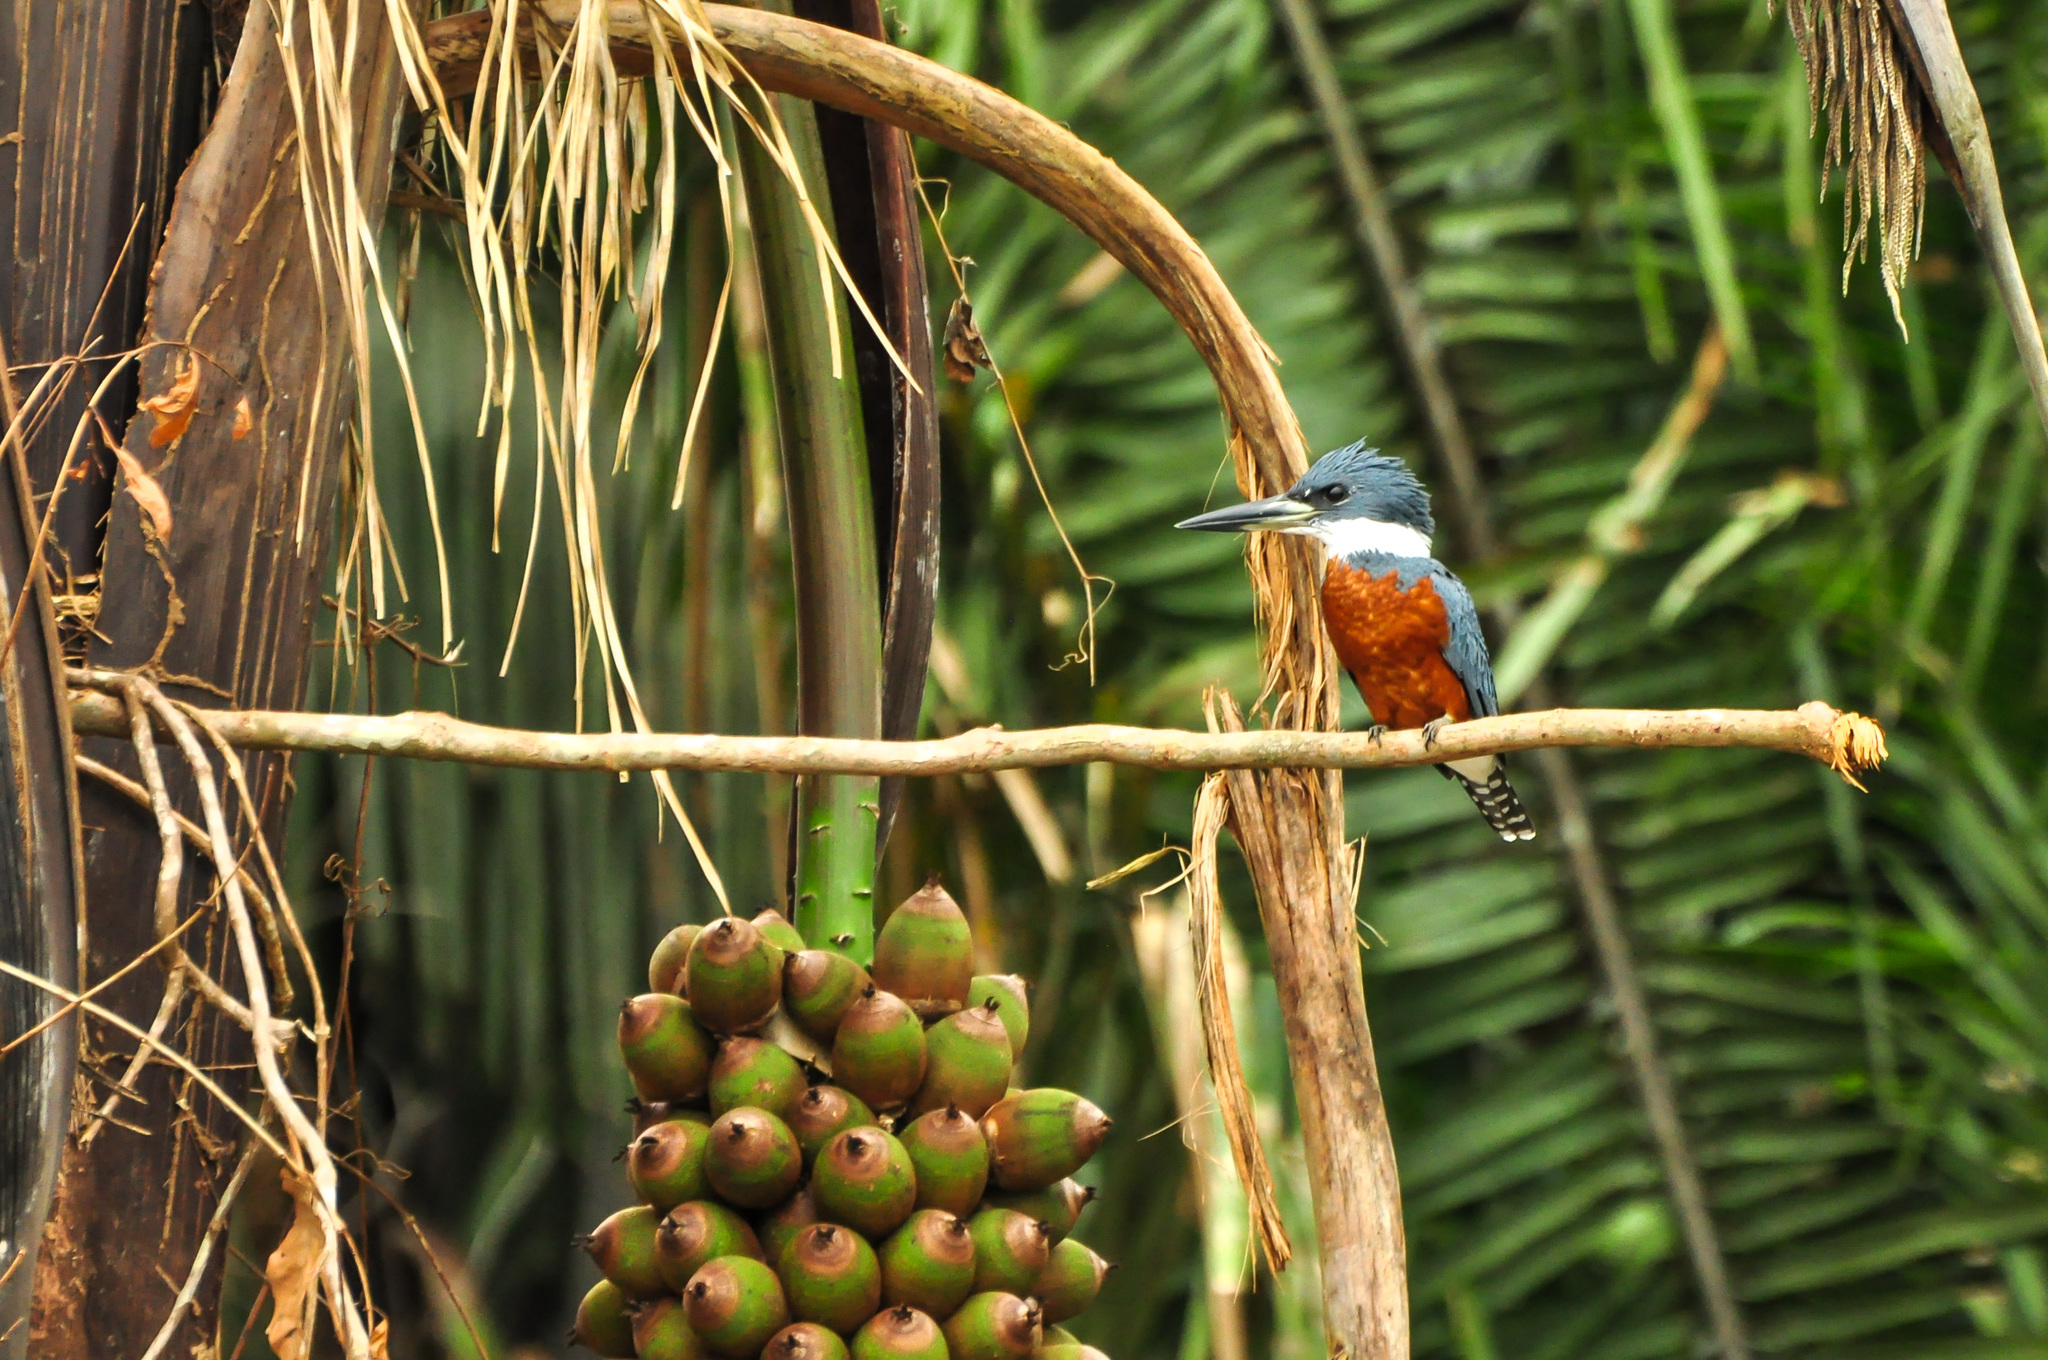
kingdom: Animalia
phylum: Chordata
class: Aves
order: Coraciiformes
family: Alcedinidae
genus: Megaceryle
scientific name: Megaceryle torquata
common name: Ringed kingfisher
